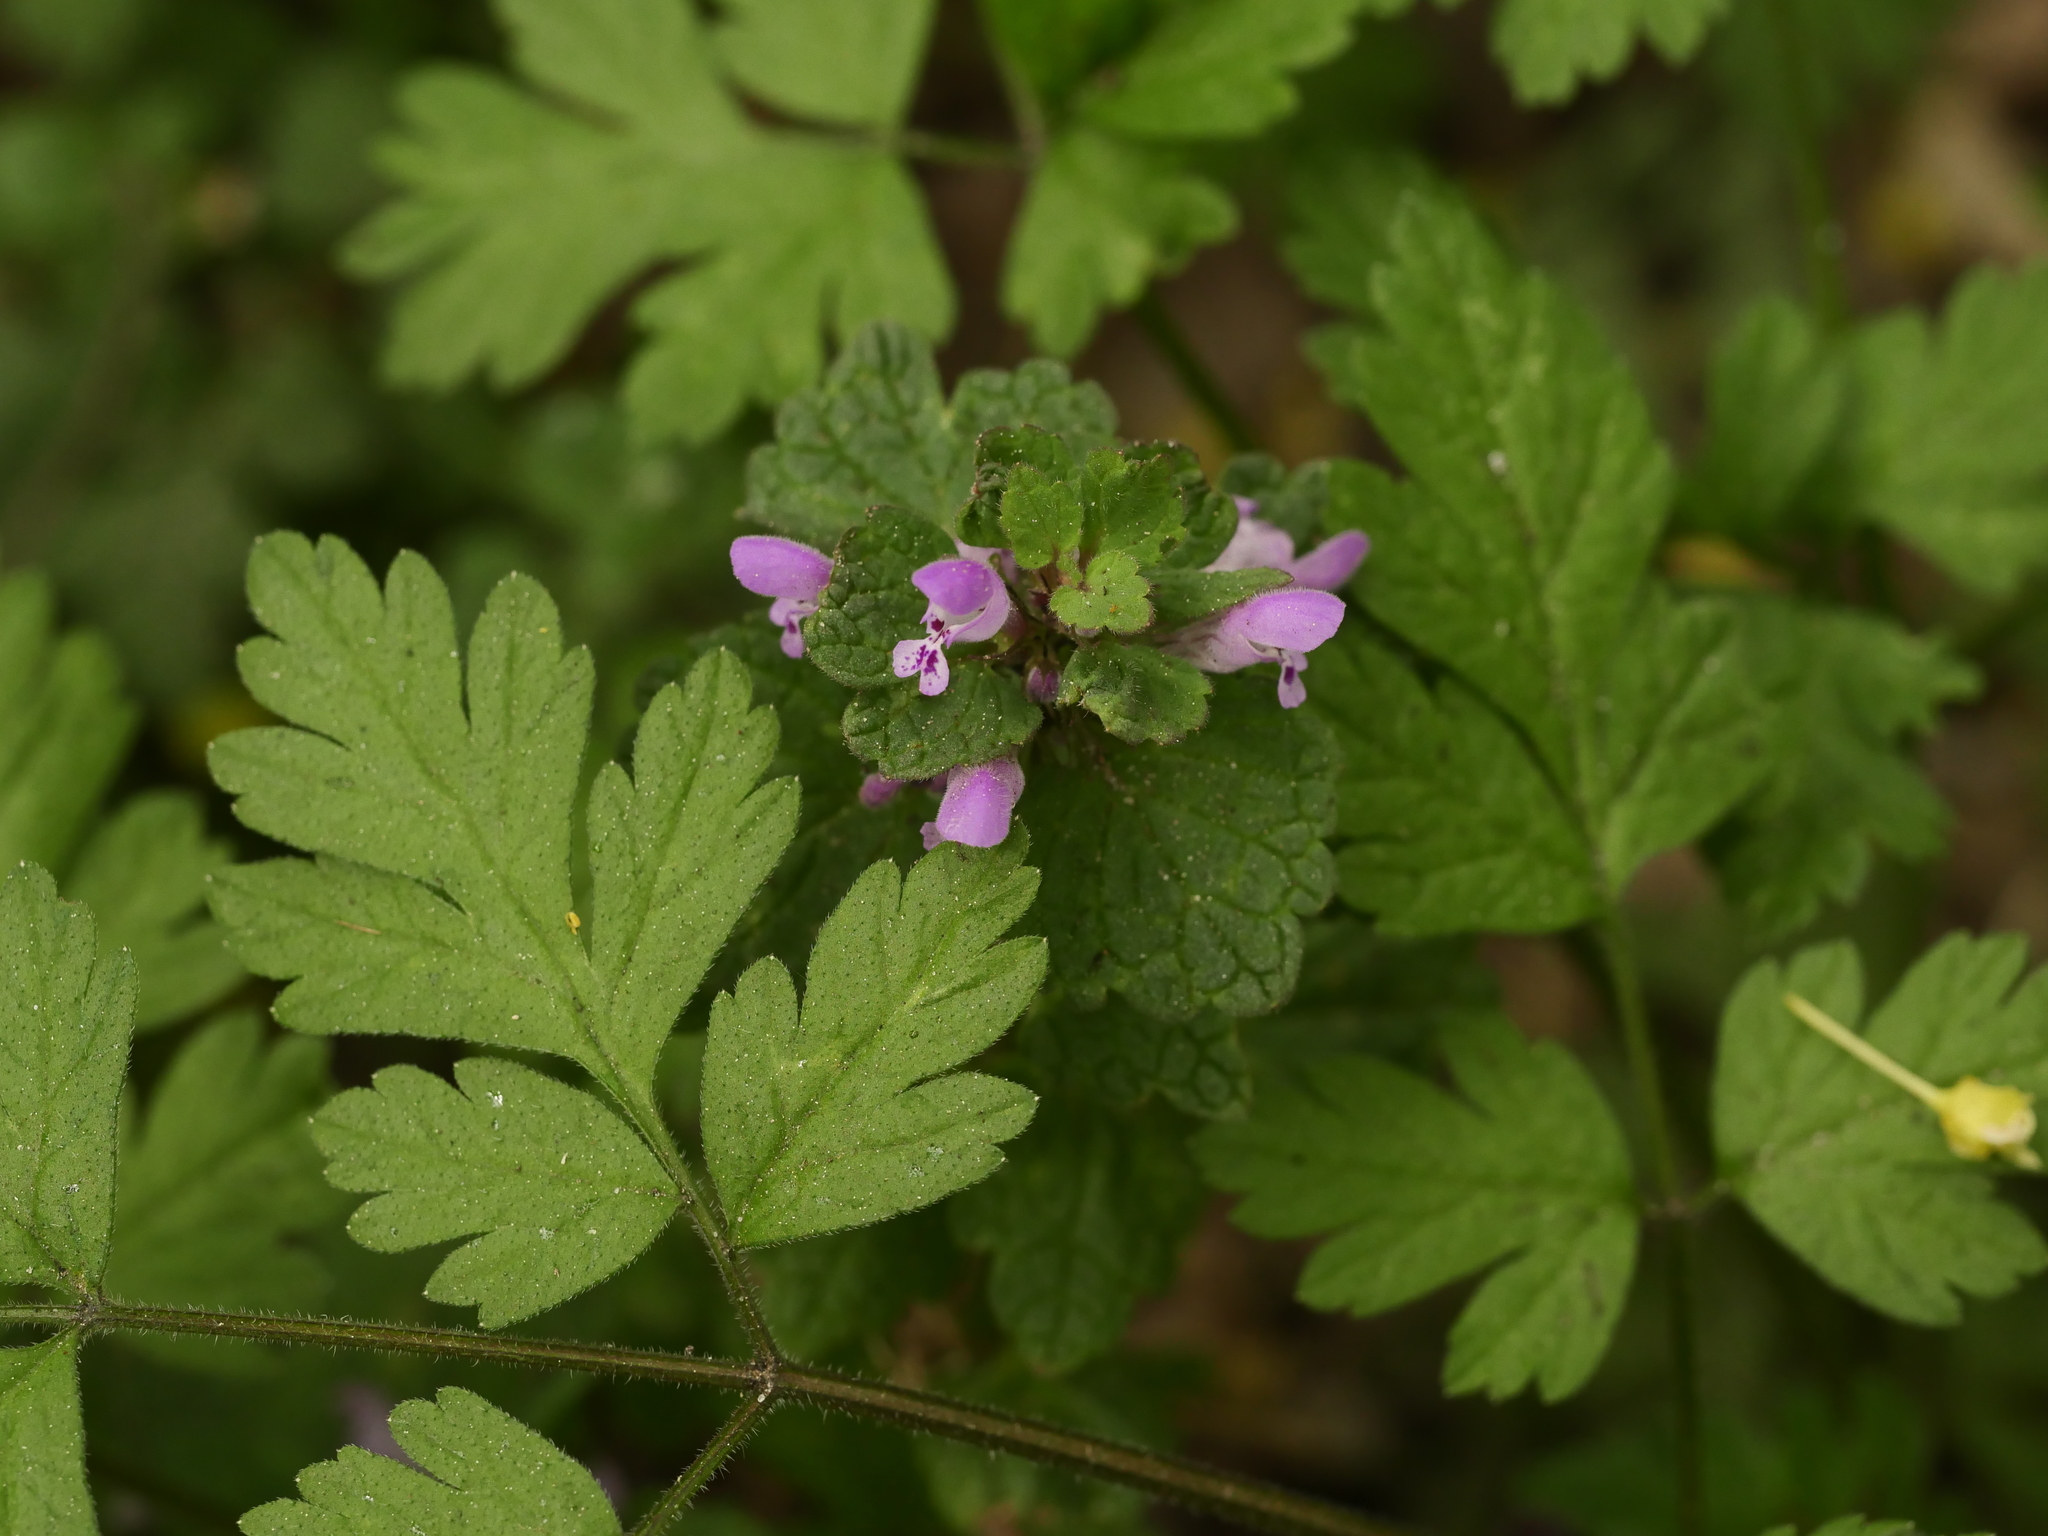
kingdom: Plantae
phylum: Tracheophyta
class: Magnoliopsida
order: Lamiales
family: Lamiaceae
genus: Lamium
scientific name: Lamium purpureum
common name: Red dead-nettle
